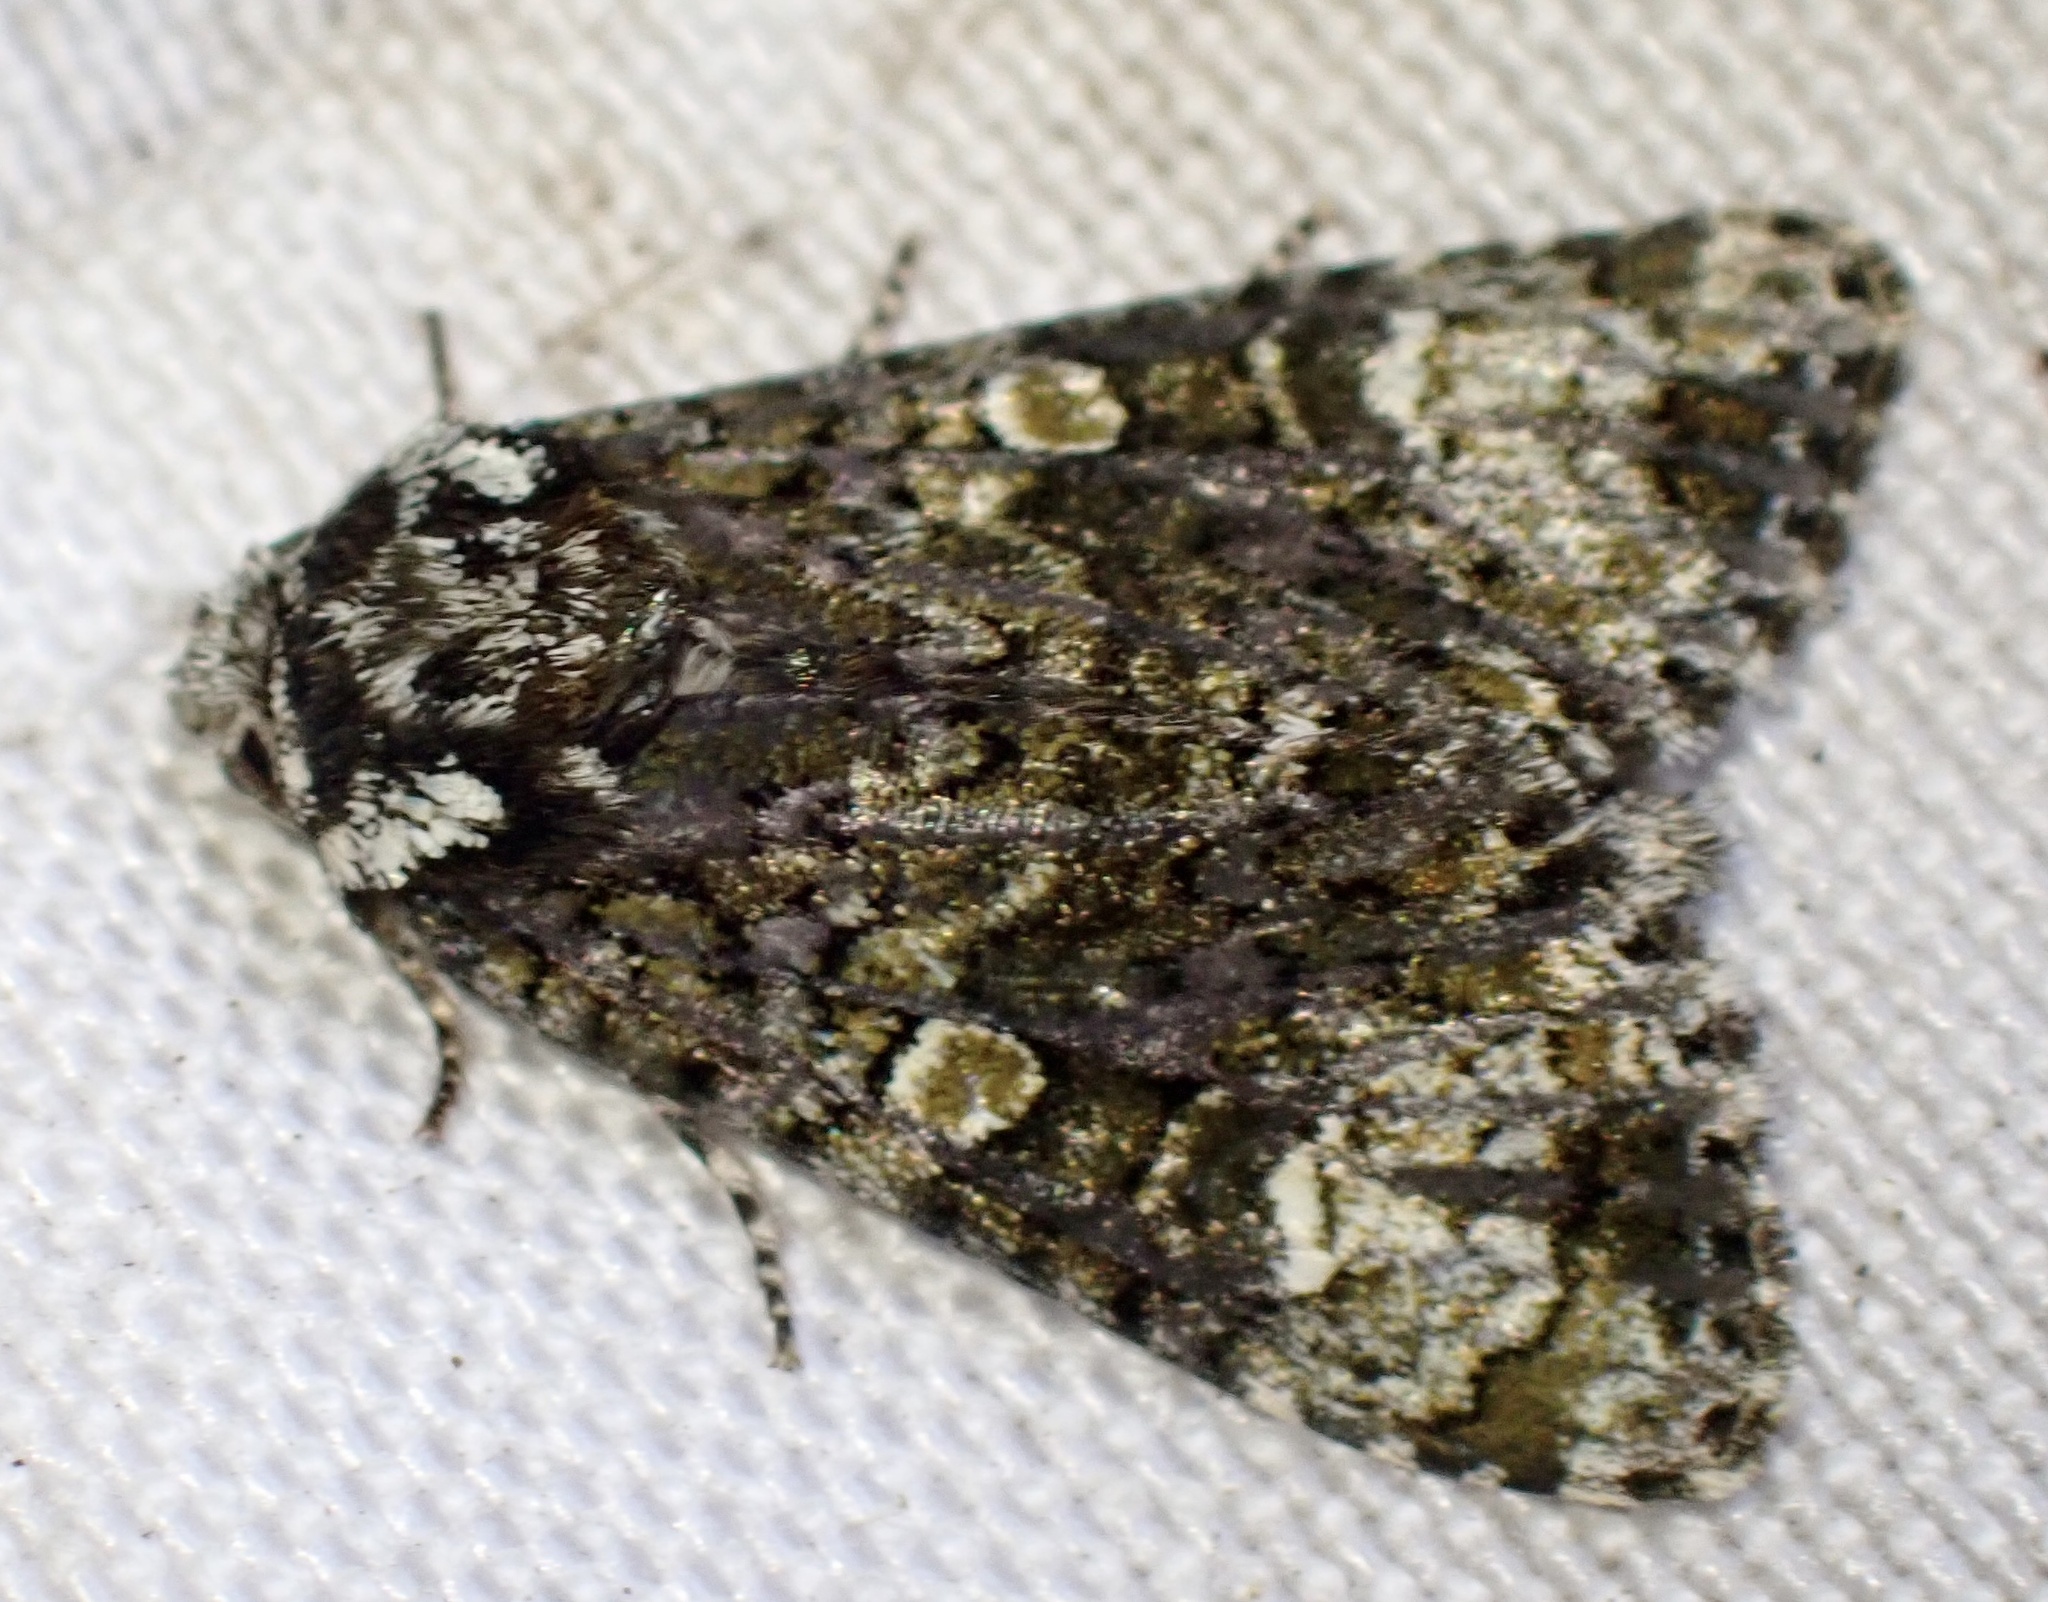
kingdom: Animalia
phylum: Arthropoda
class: Insecta
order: Lepidoptera
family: Noctuidae
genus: Craniophora
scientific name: Craniophora ligustri
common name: Coronet
